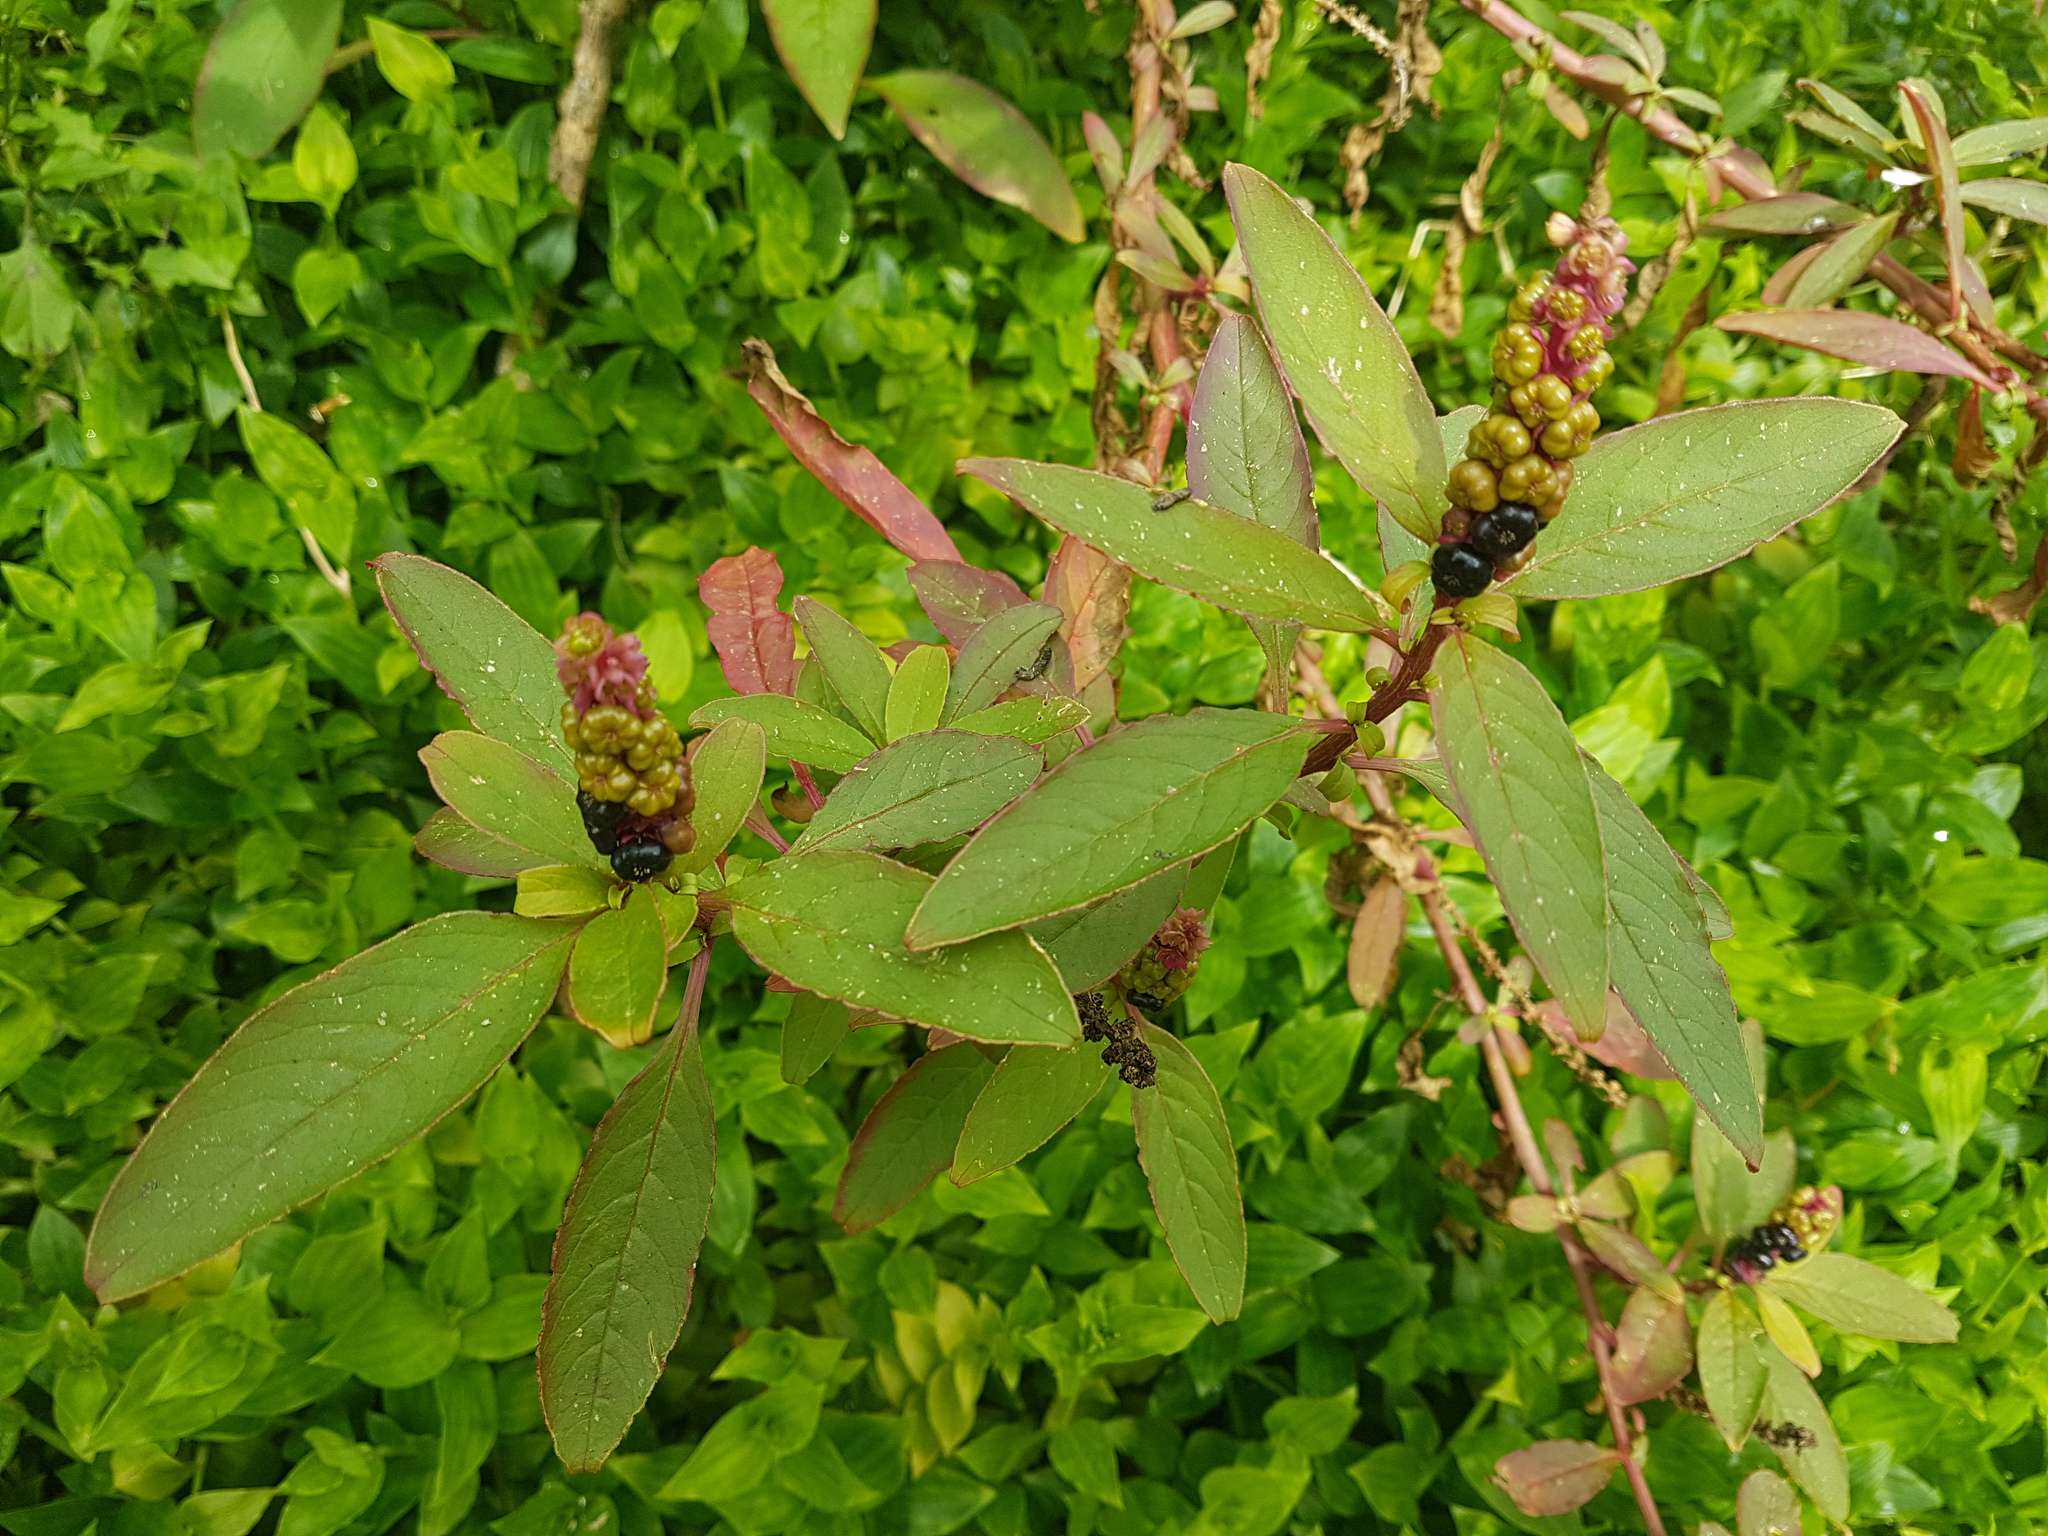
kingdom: Plantae
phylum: Tracheophyta
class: Magnoliopsida
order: Caryophyllales
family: Phytolaccaceae
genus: Phytolacca
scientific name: Phytolacca icosandra
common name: Button pokeweed
